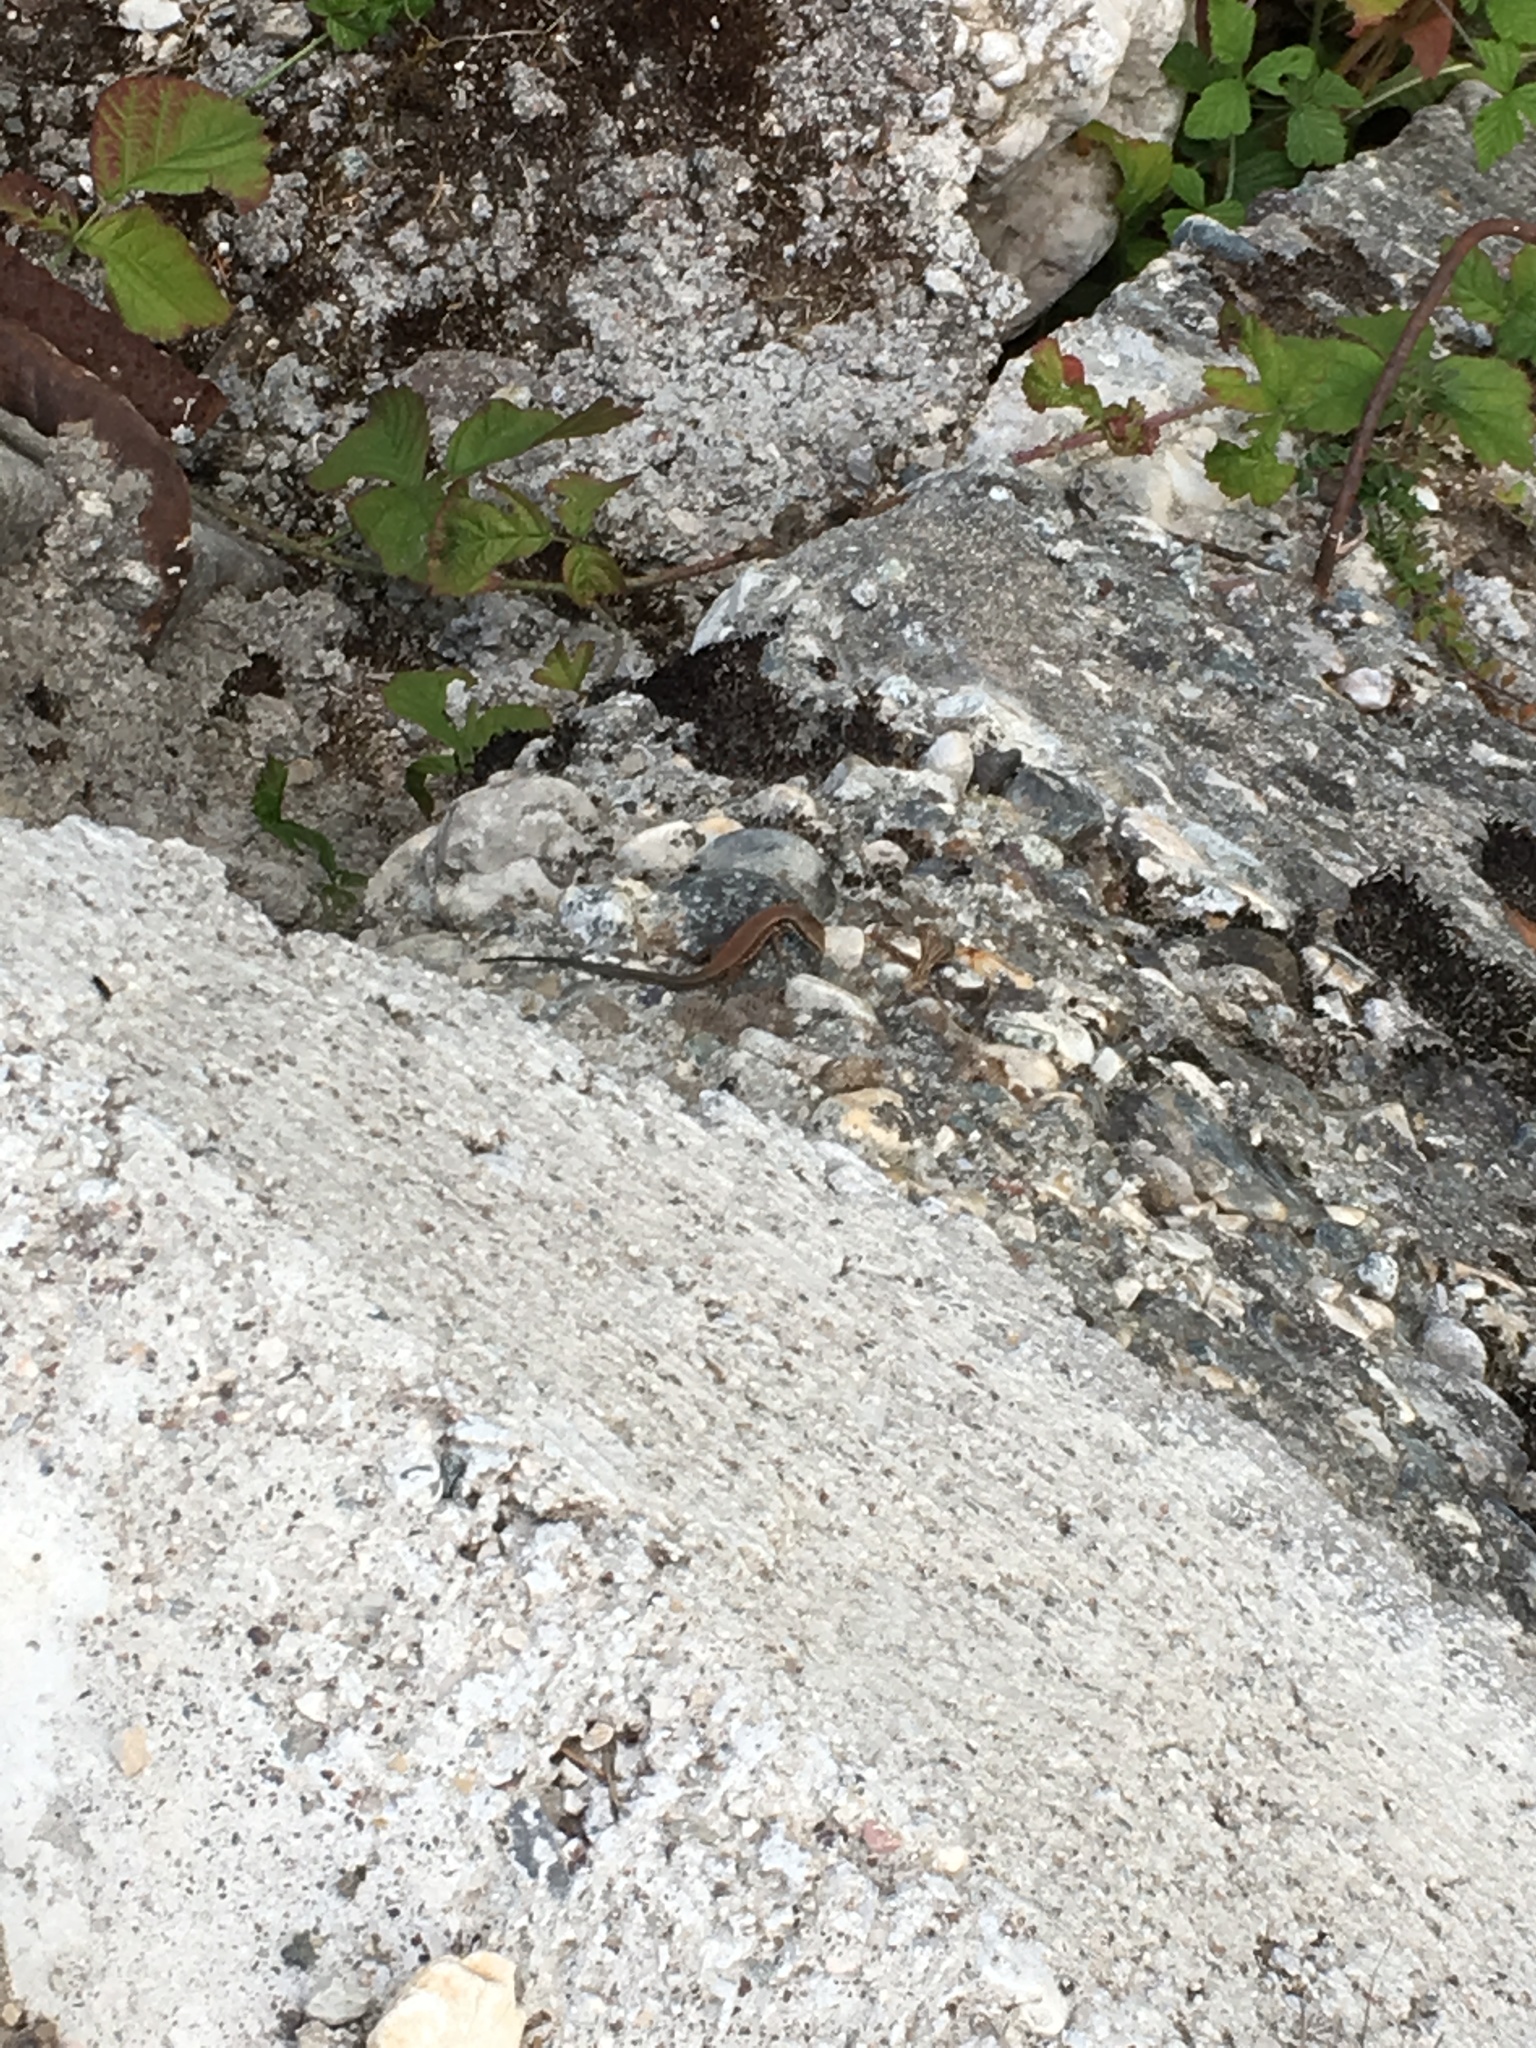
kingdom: Animalia
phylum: Chordata
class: Squamata
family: Lacertidae
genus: Podarcis
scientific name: Podarcis muralis
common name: Common wall lizard
